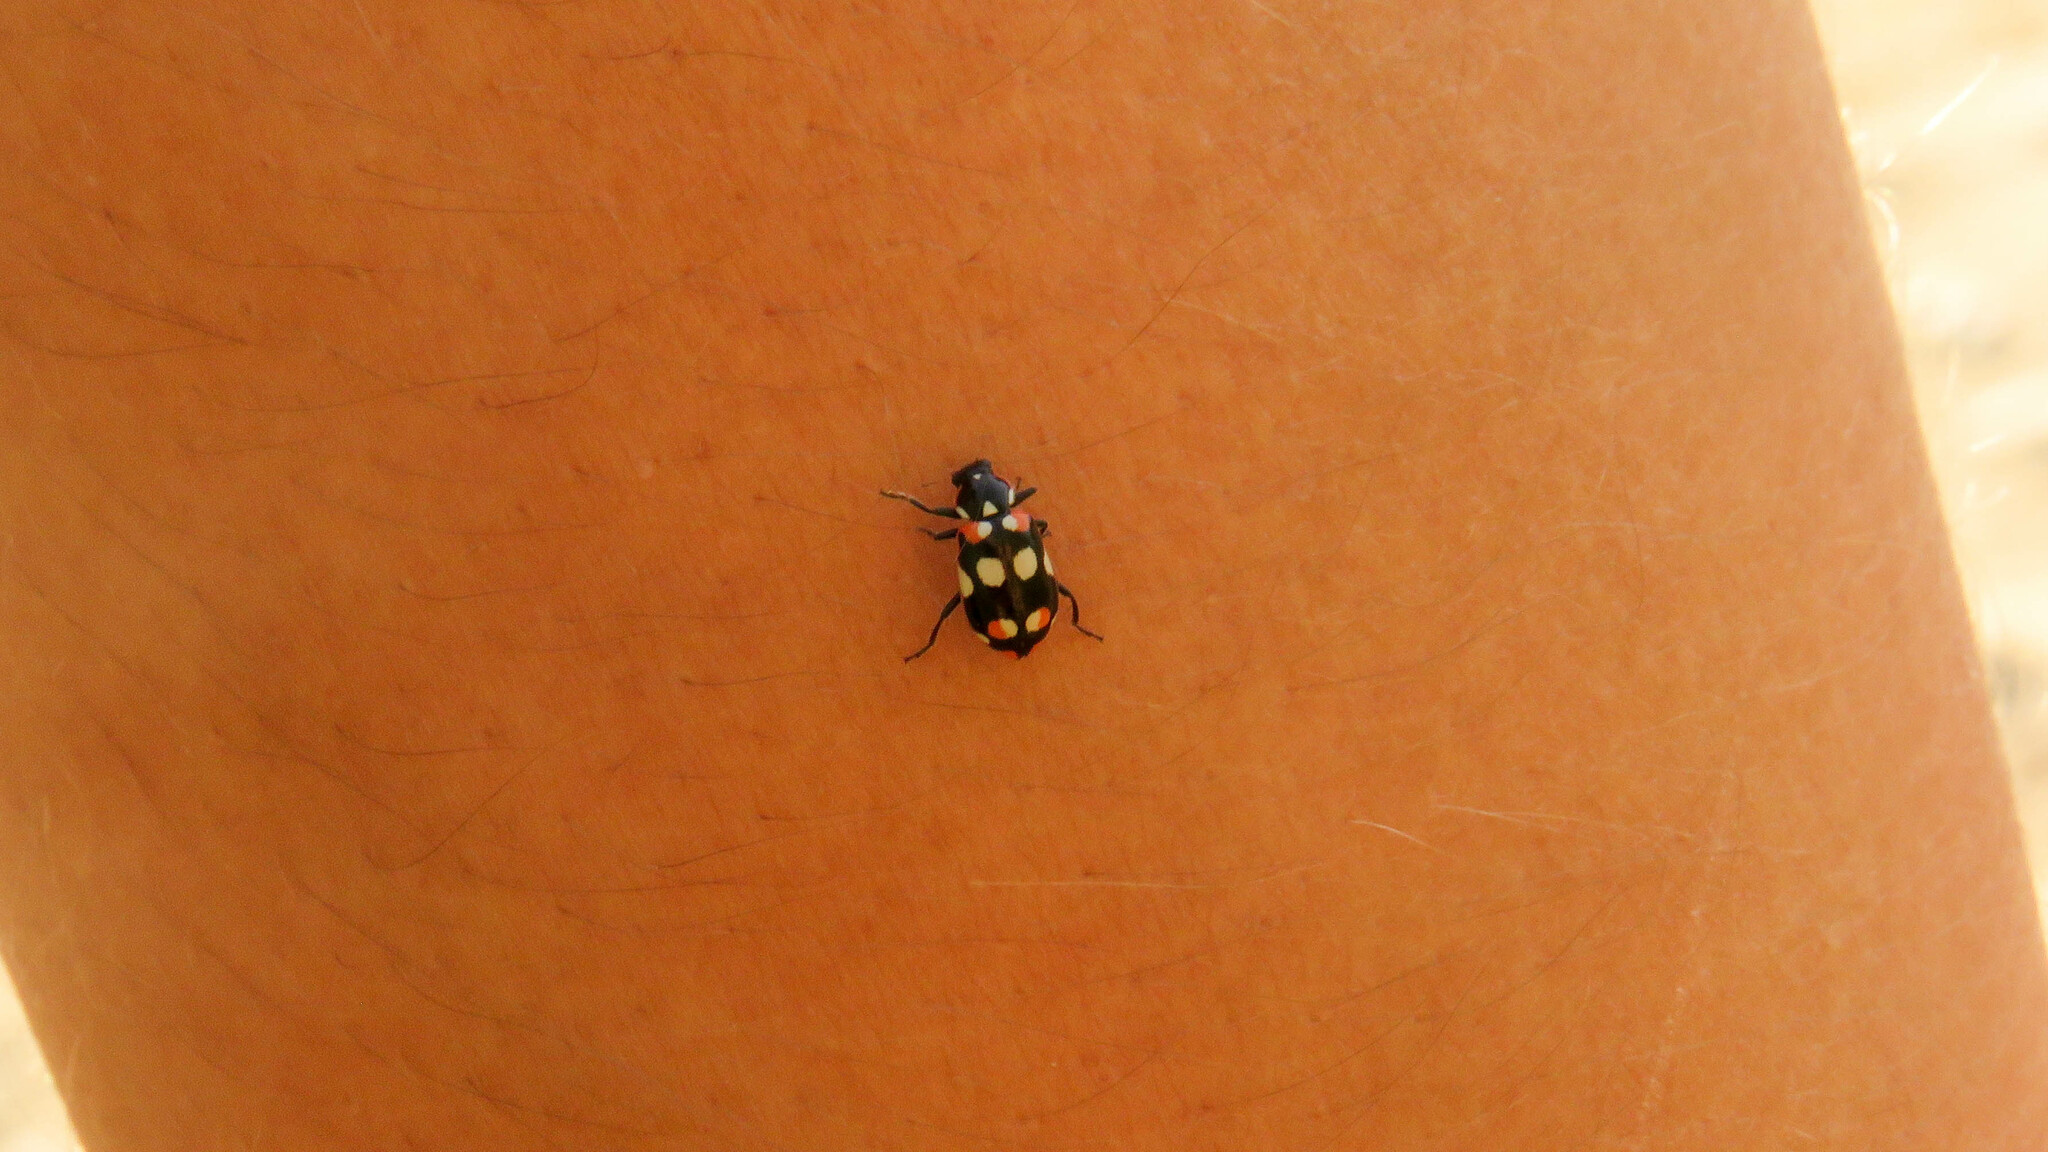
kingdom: Animalia
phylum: Arthropoda
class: Insecta
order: Coleoptera
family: Coccinellidae
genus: Eriopis
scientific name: Eriopis connexa
